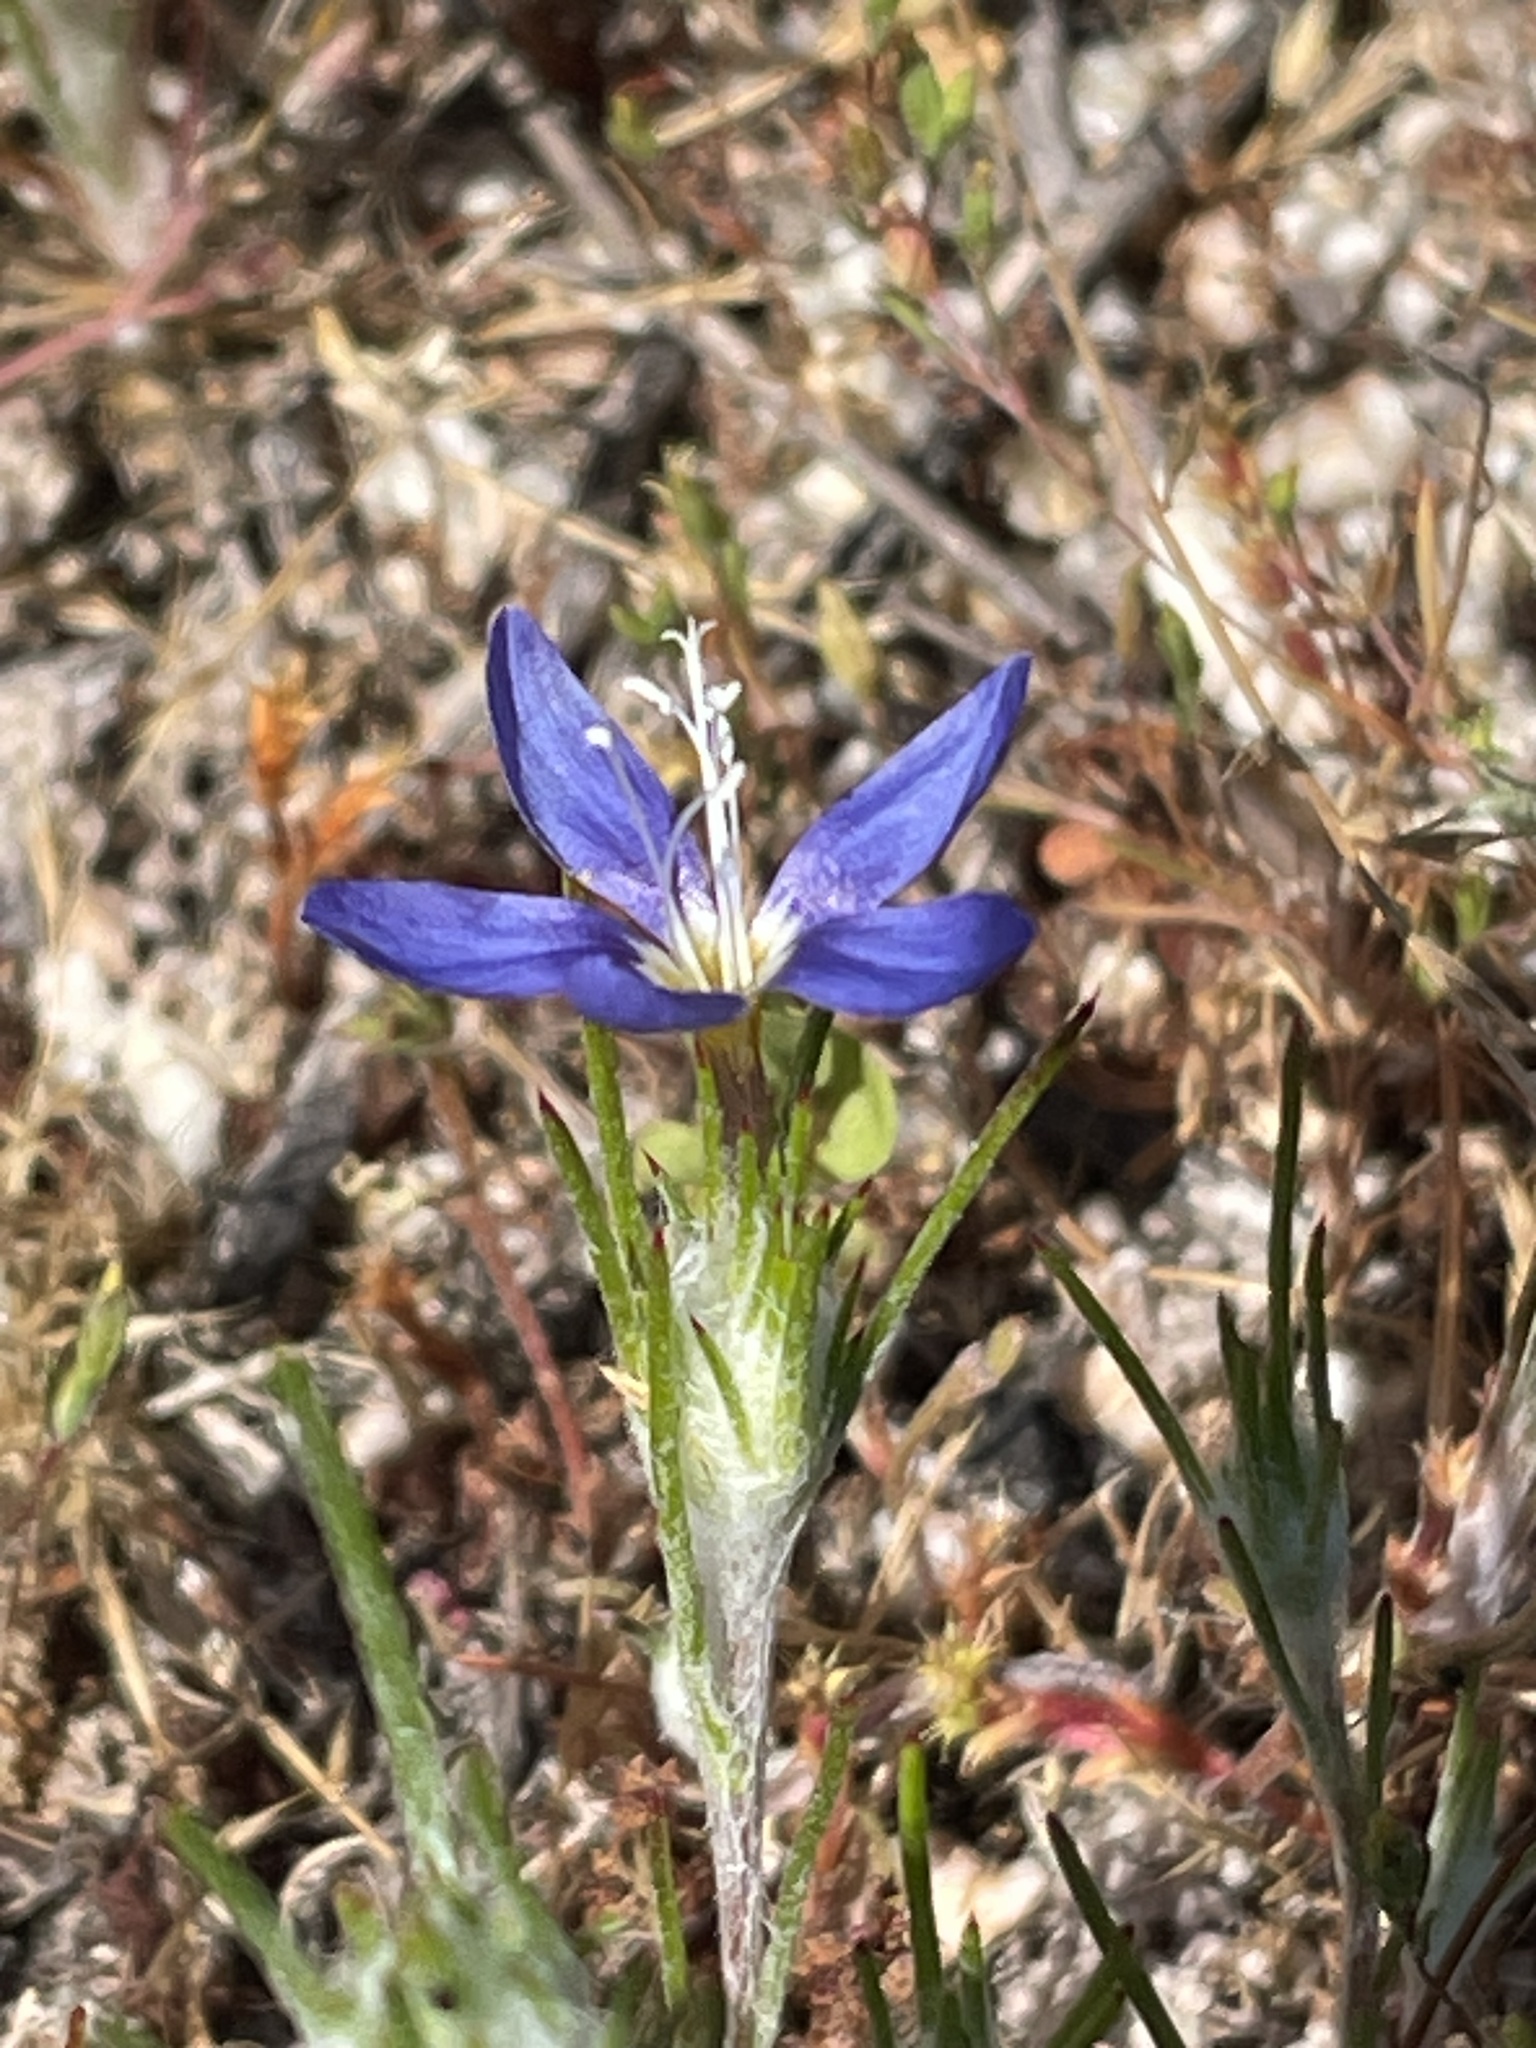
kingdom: Plantae
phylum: Tracheophyta
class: Magnoliopsida
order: Ericales
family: Polemoniaceae
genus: Eriastrum
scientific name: Eriastrum virgatum
